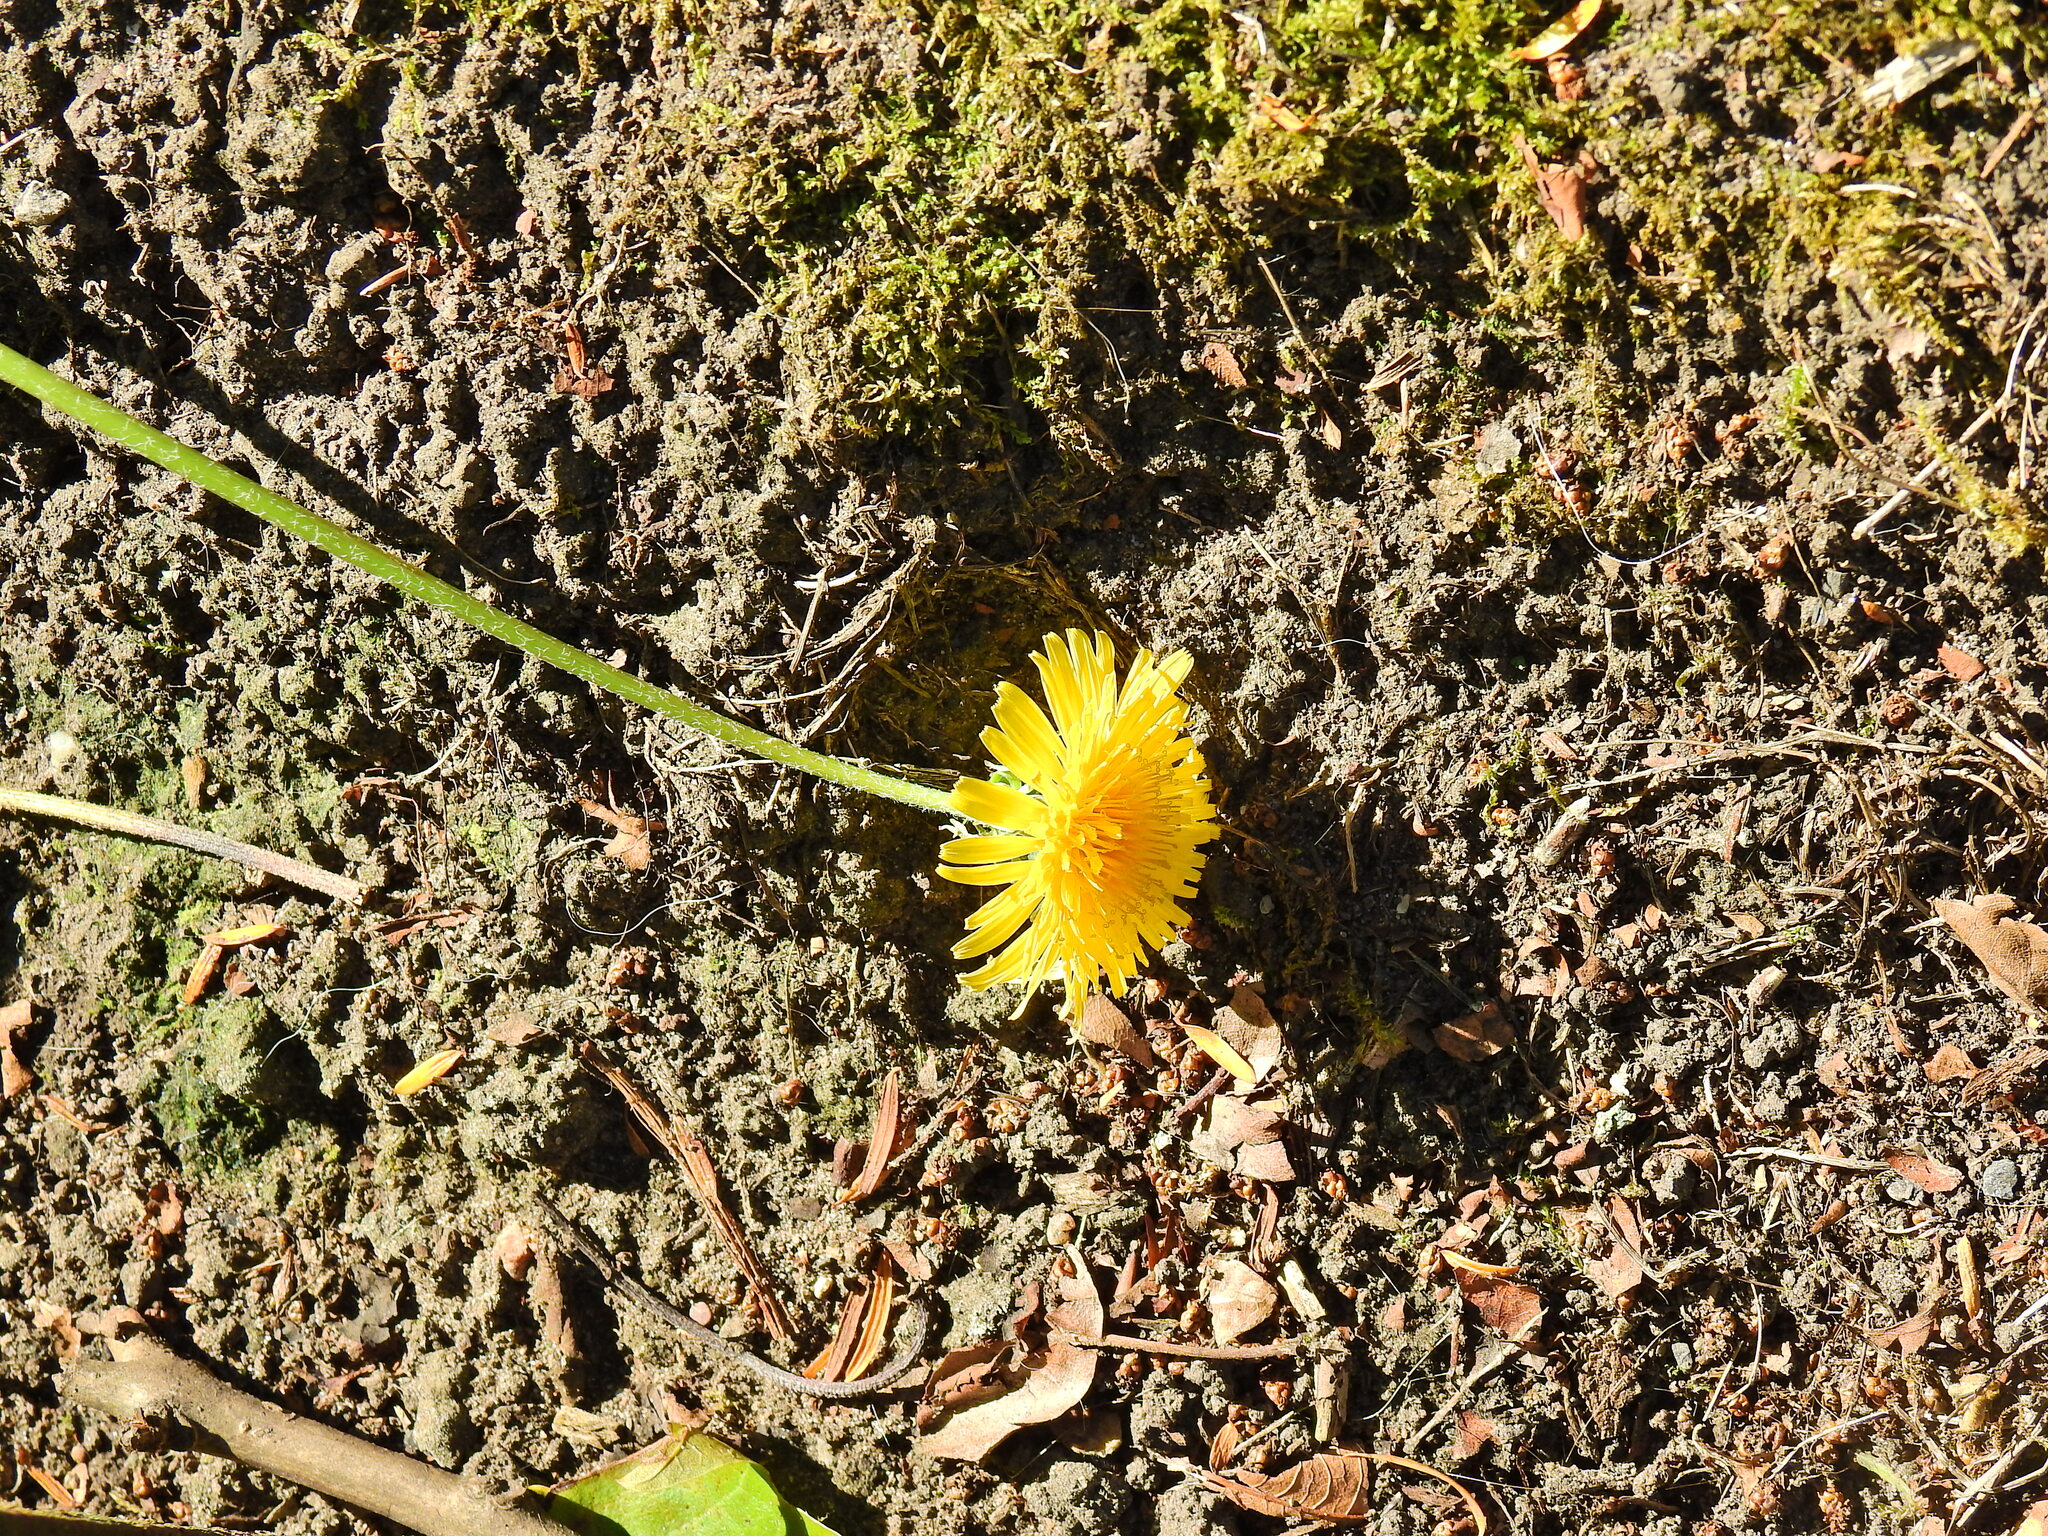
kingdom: Plantae
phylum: Tracheophyta
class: Magnoliopsida
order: Asterales
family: Asteraceae
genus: Taraxacum
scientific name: Taraxacum officinale
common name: Common dandelion
